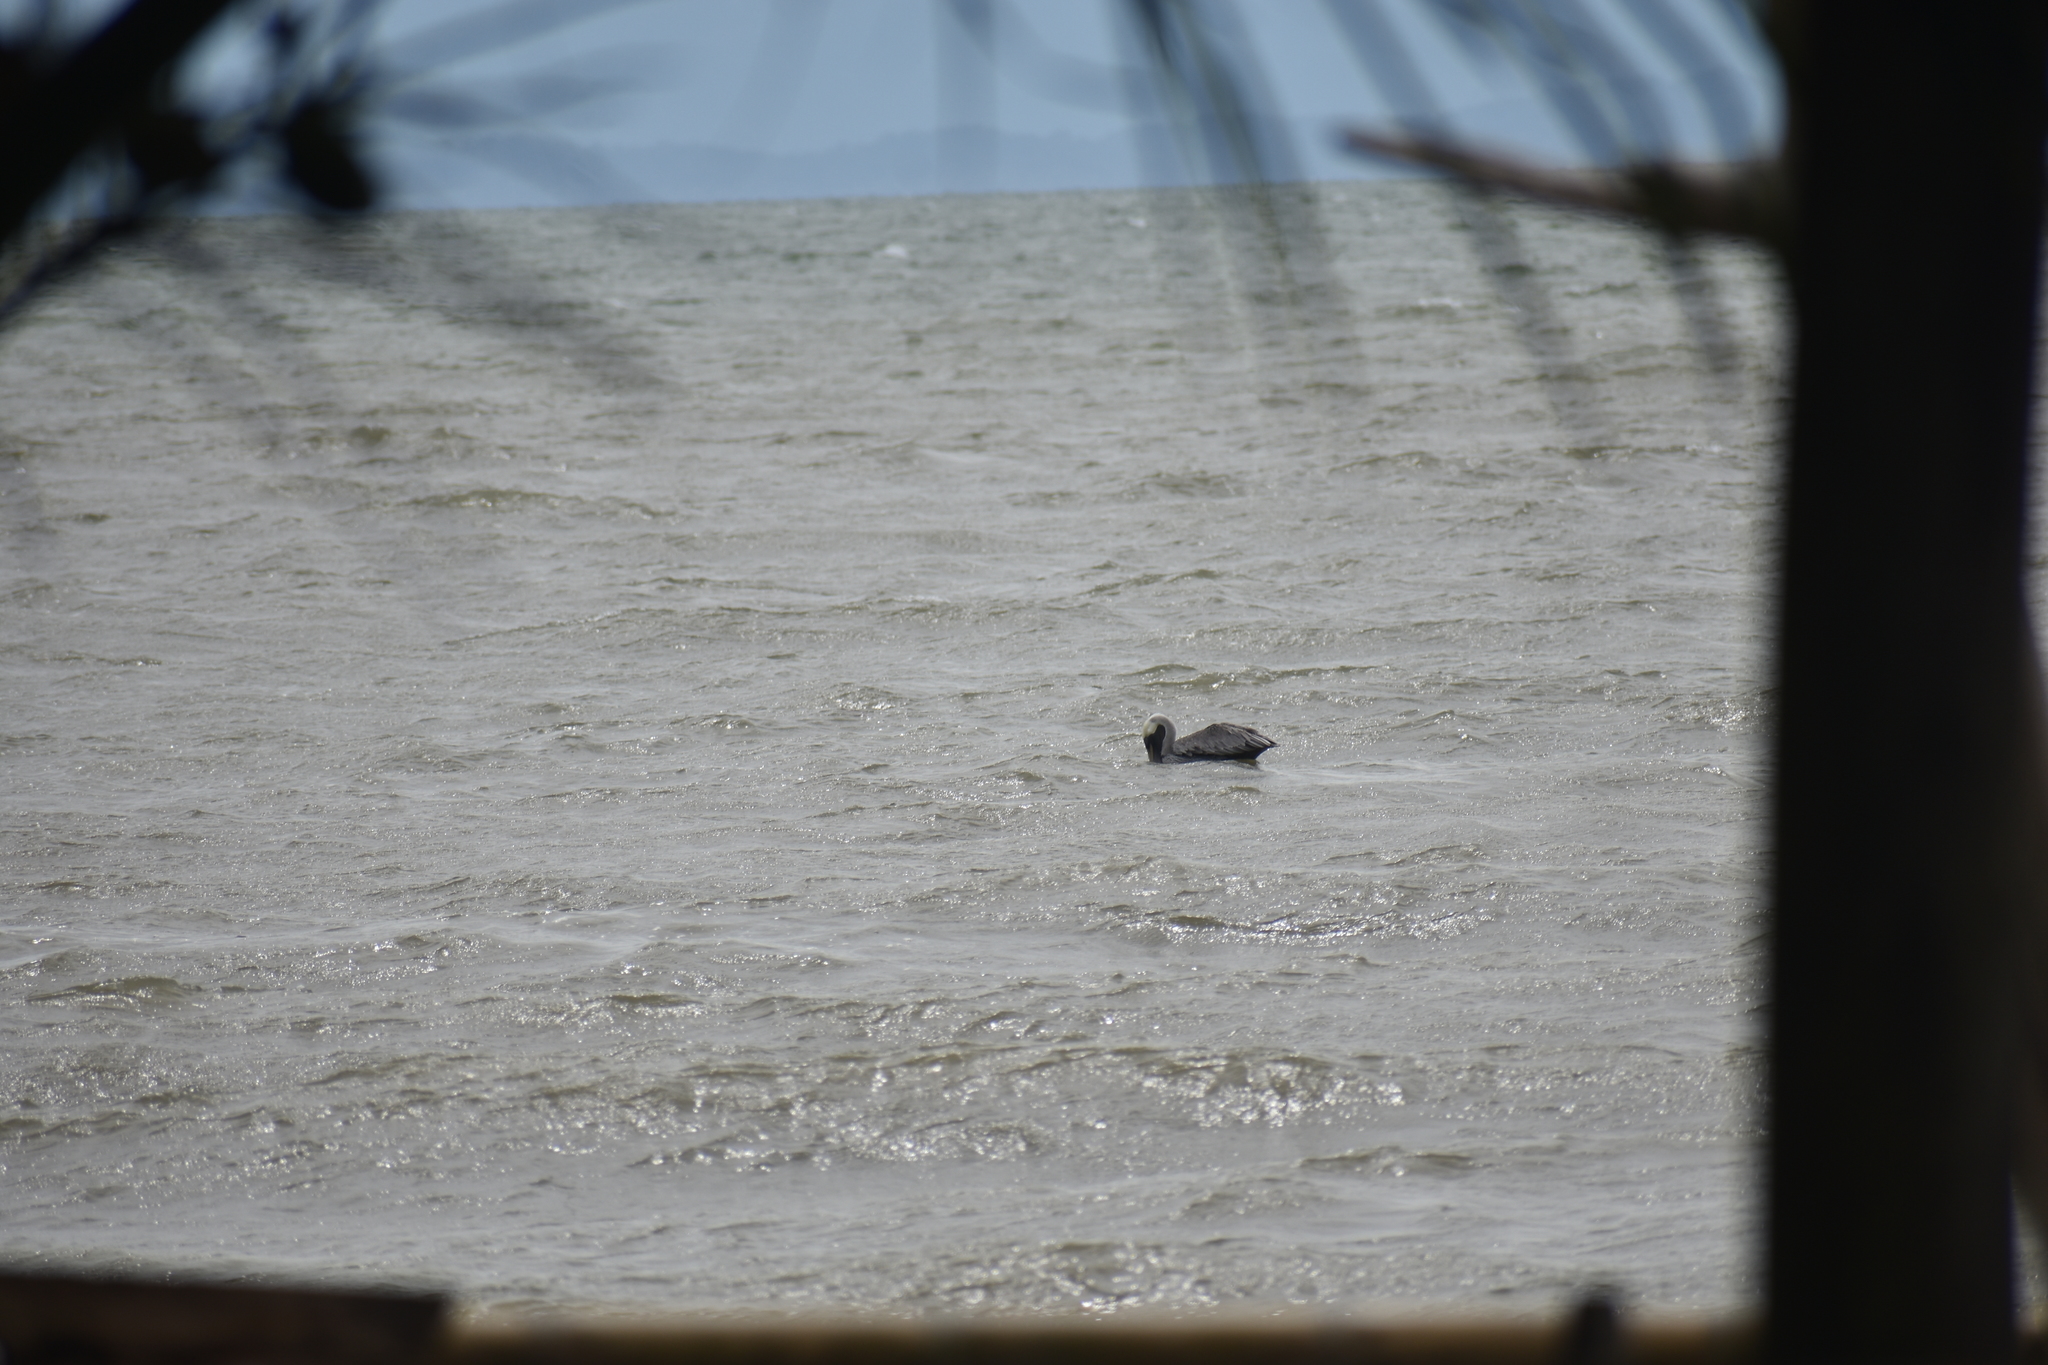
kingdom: Animalia
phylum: Chordata
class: Aves
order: Pelecaniformes
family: Pelecanidae
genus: Pelecanus
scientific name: Pelecanus occidentalis
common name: Brown pelican
